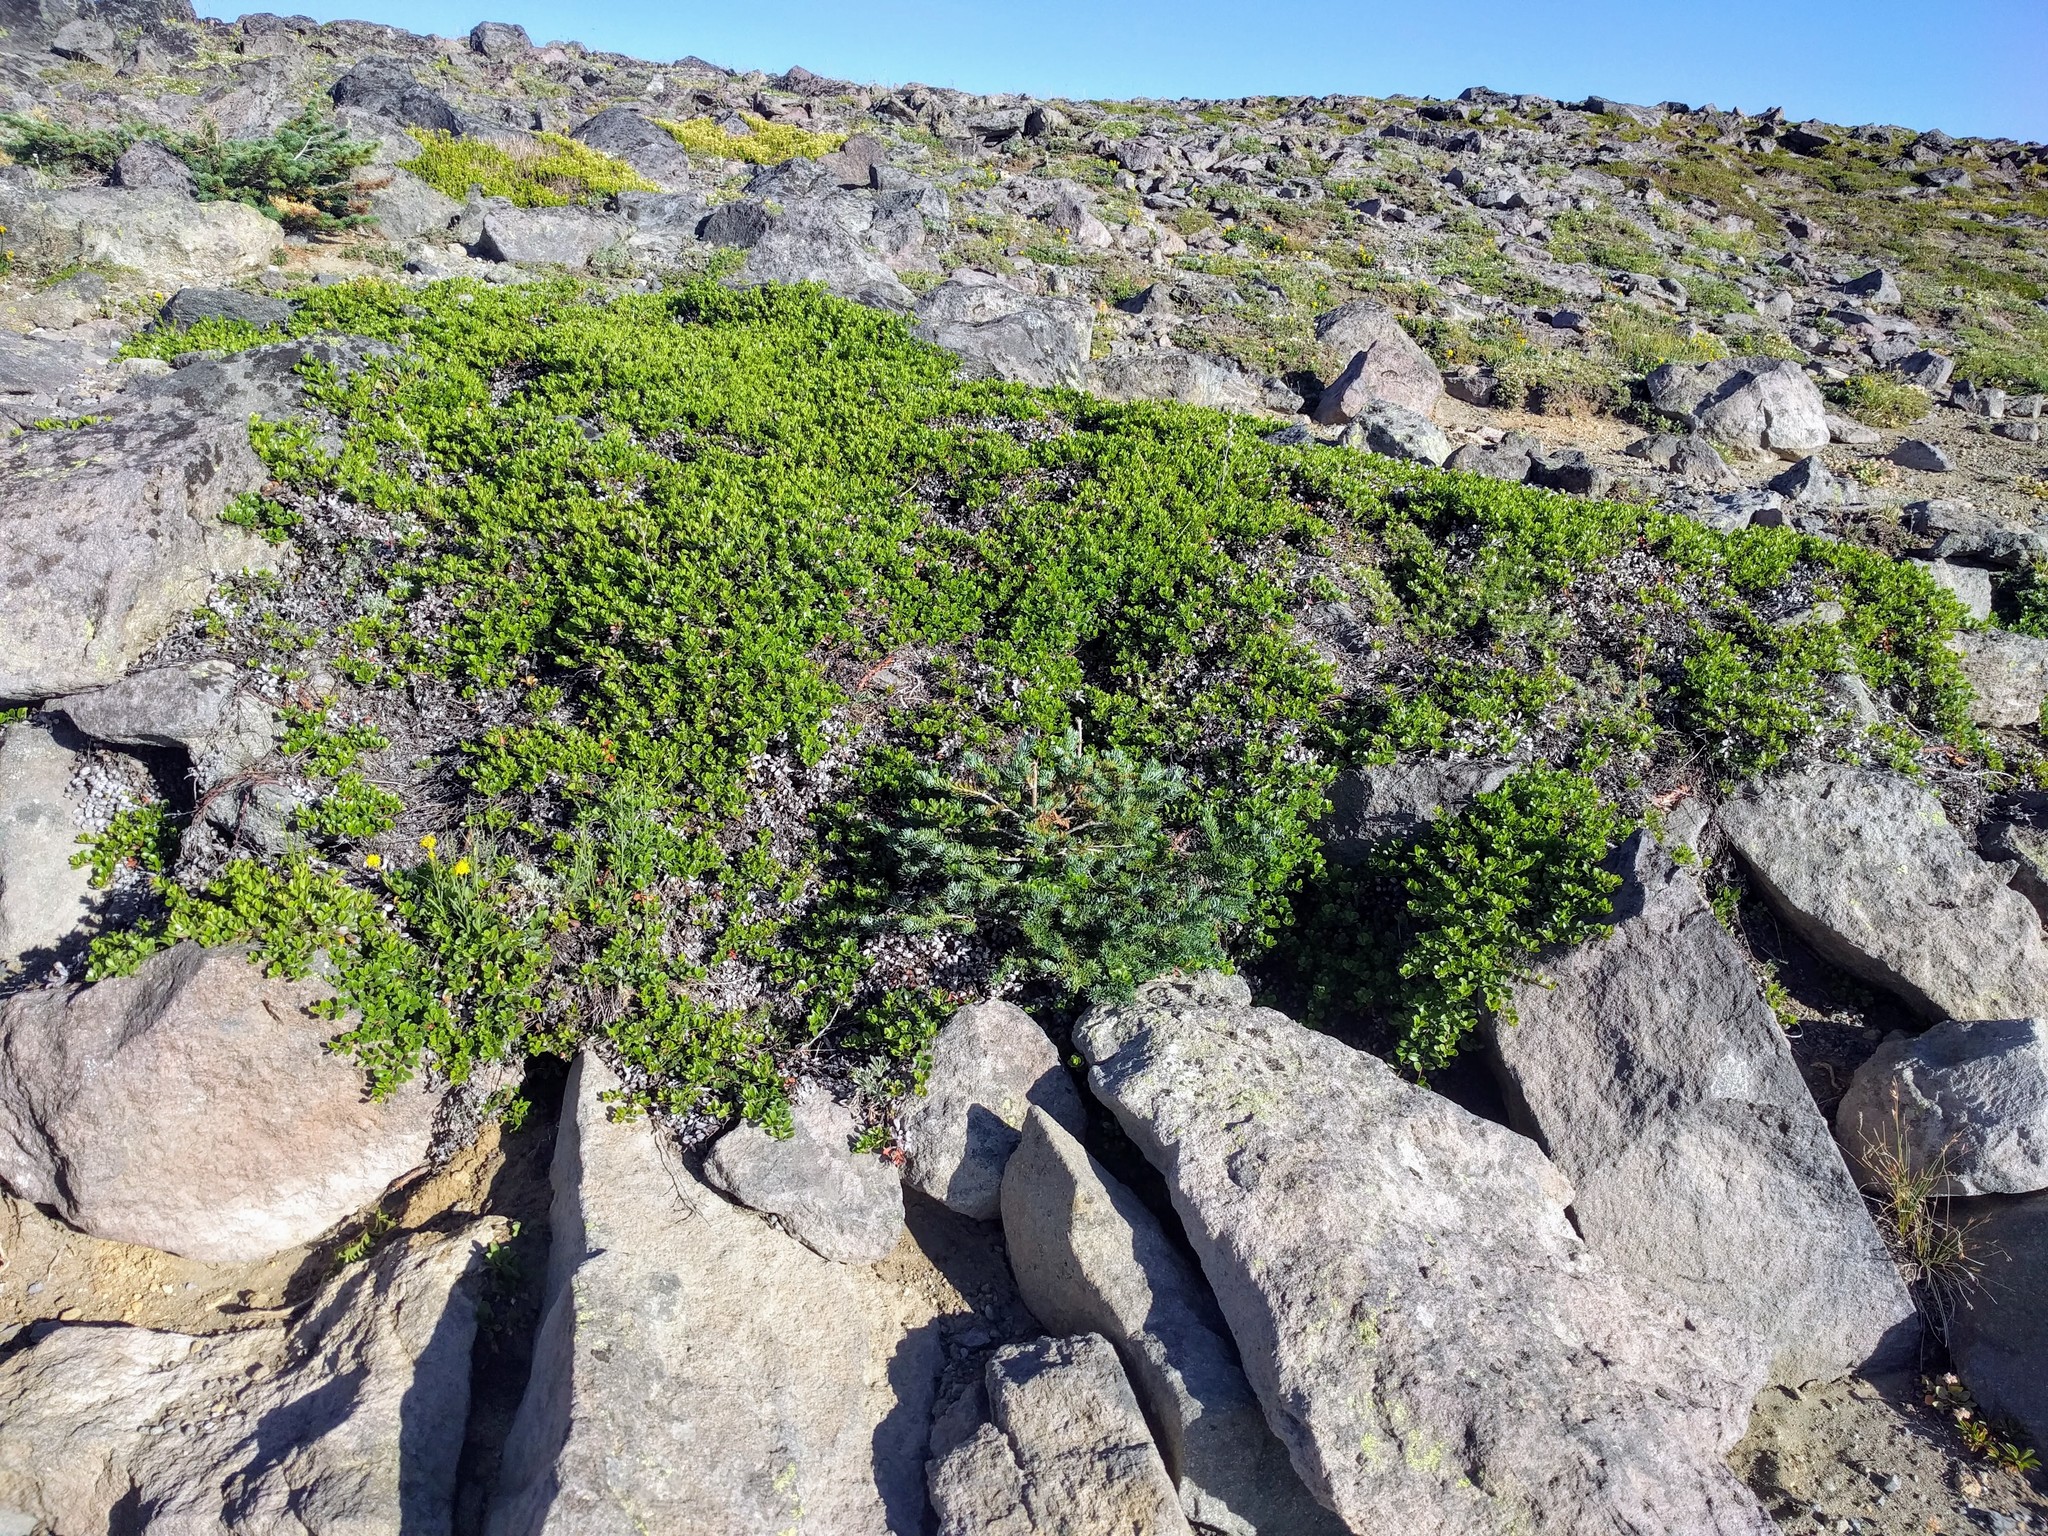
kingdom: Plantae
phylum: Tracheophyta
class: Magnoliopsida
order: Ericales
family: Ericaceae
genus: Arctostaphylos
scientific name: Arctostaphylos uva-ursi
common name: Bearberry
